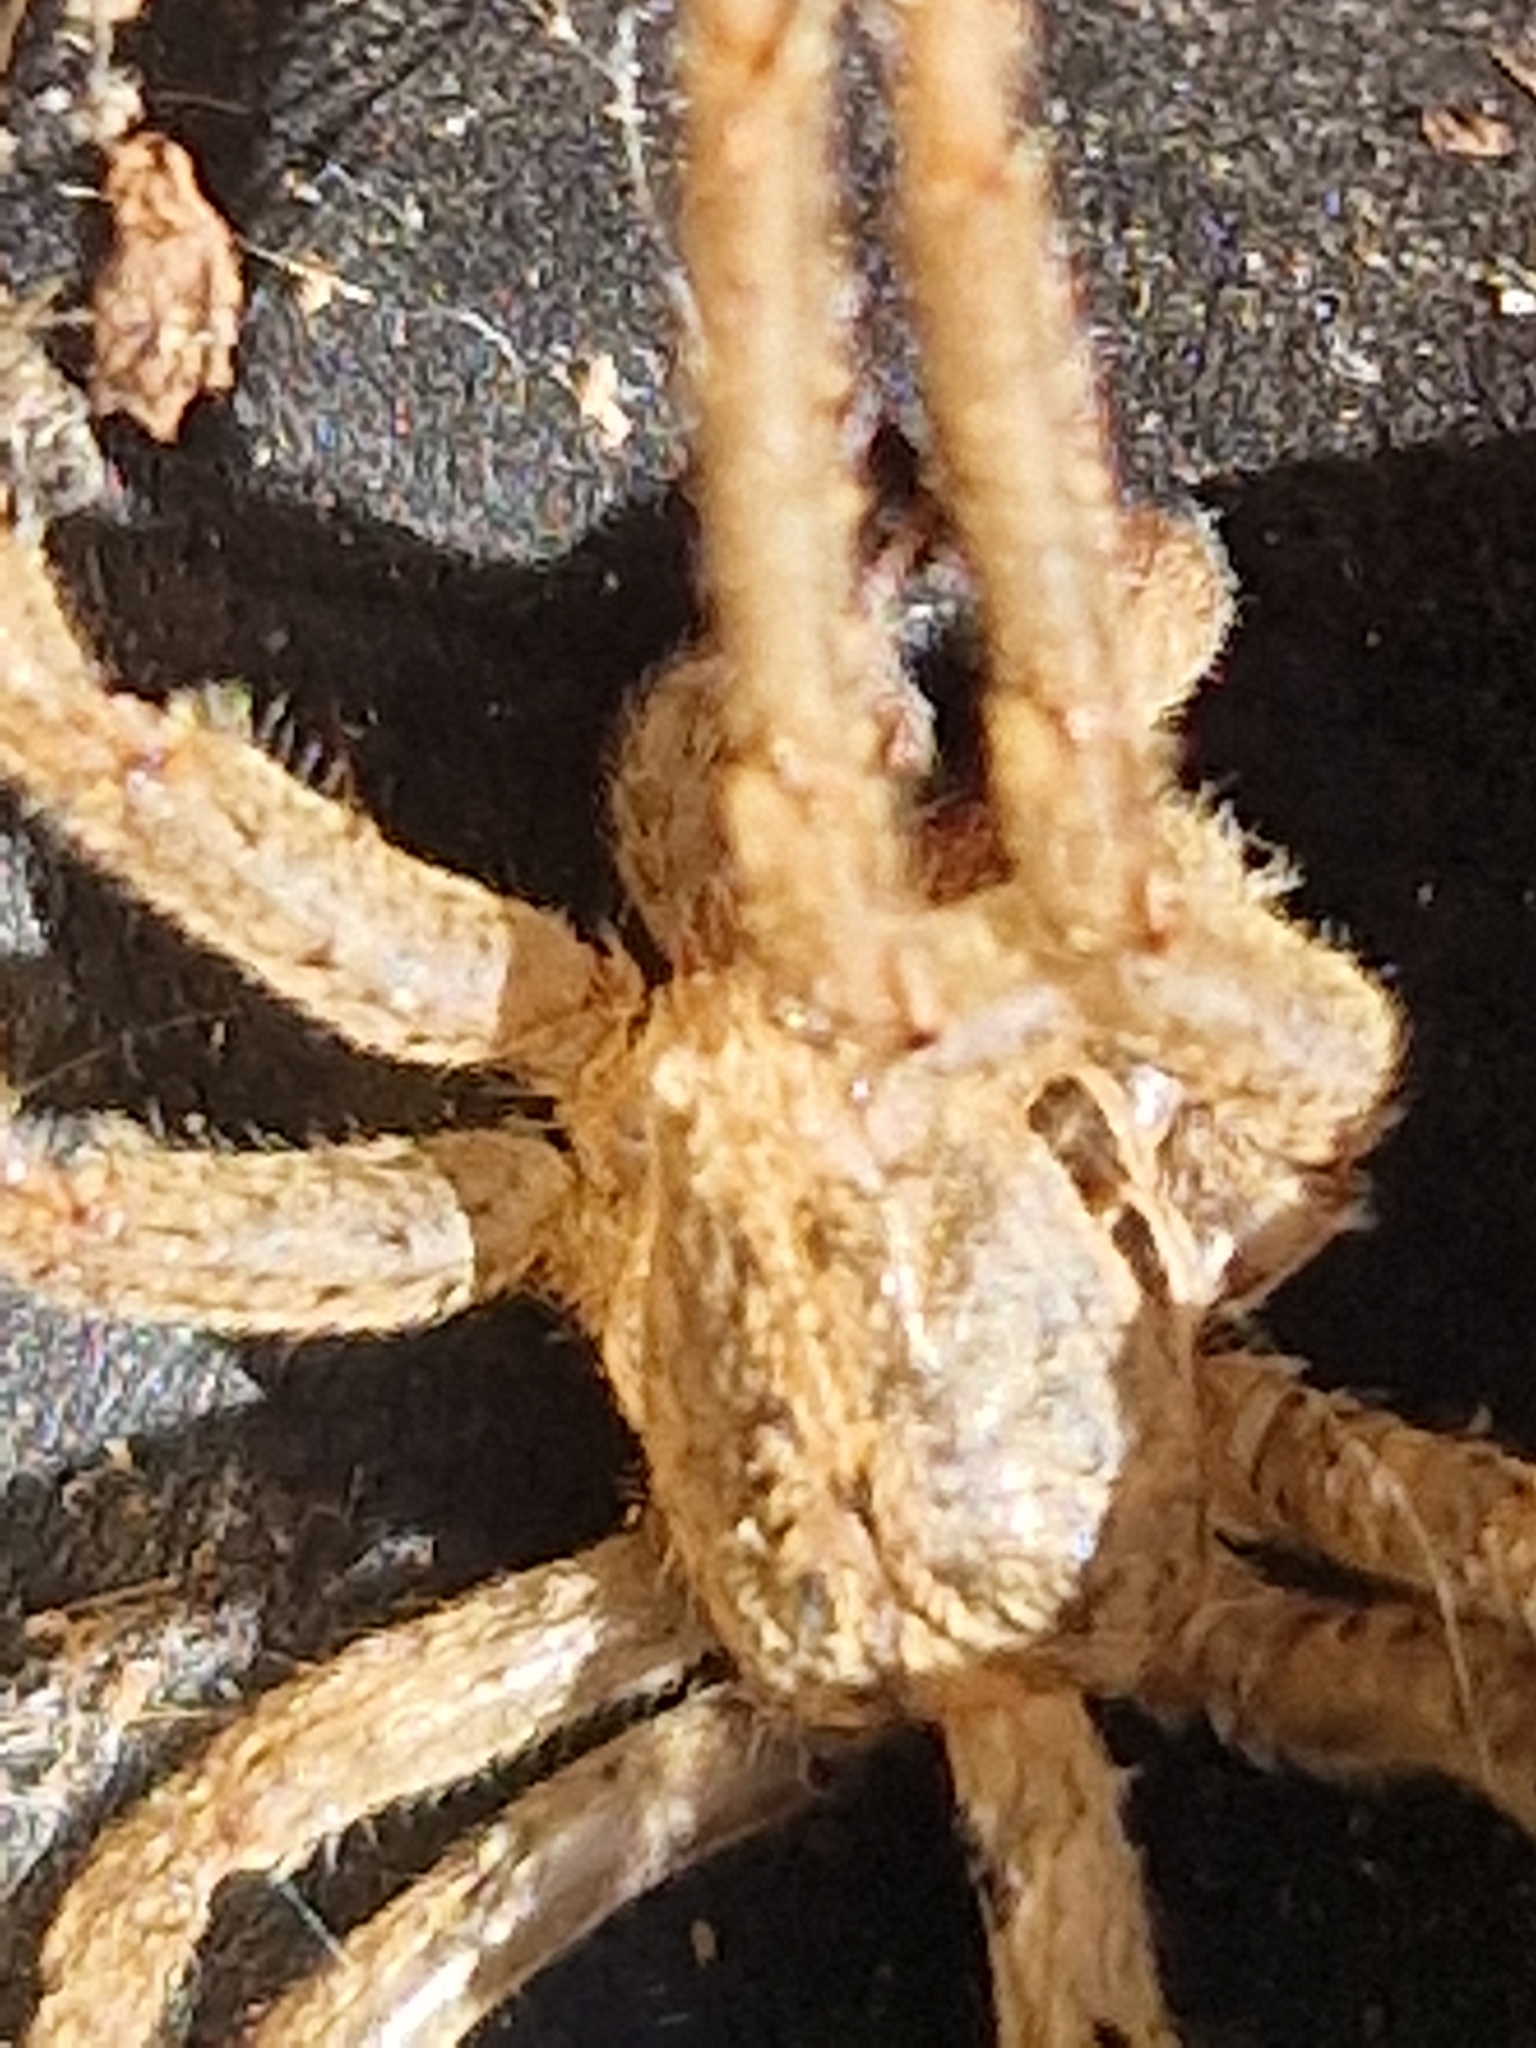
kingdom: Animalia
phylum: Arthropoda
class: Arachnida
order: Araneae
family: Zoropsidae
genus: Zoropsis
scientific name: Zoropsis spinimana
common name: Zoropsid spider
